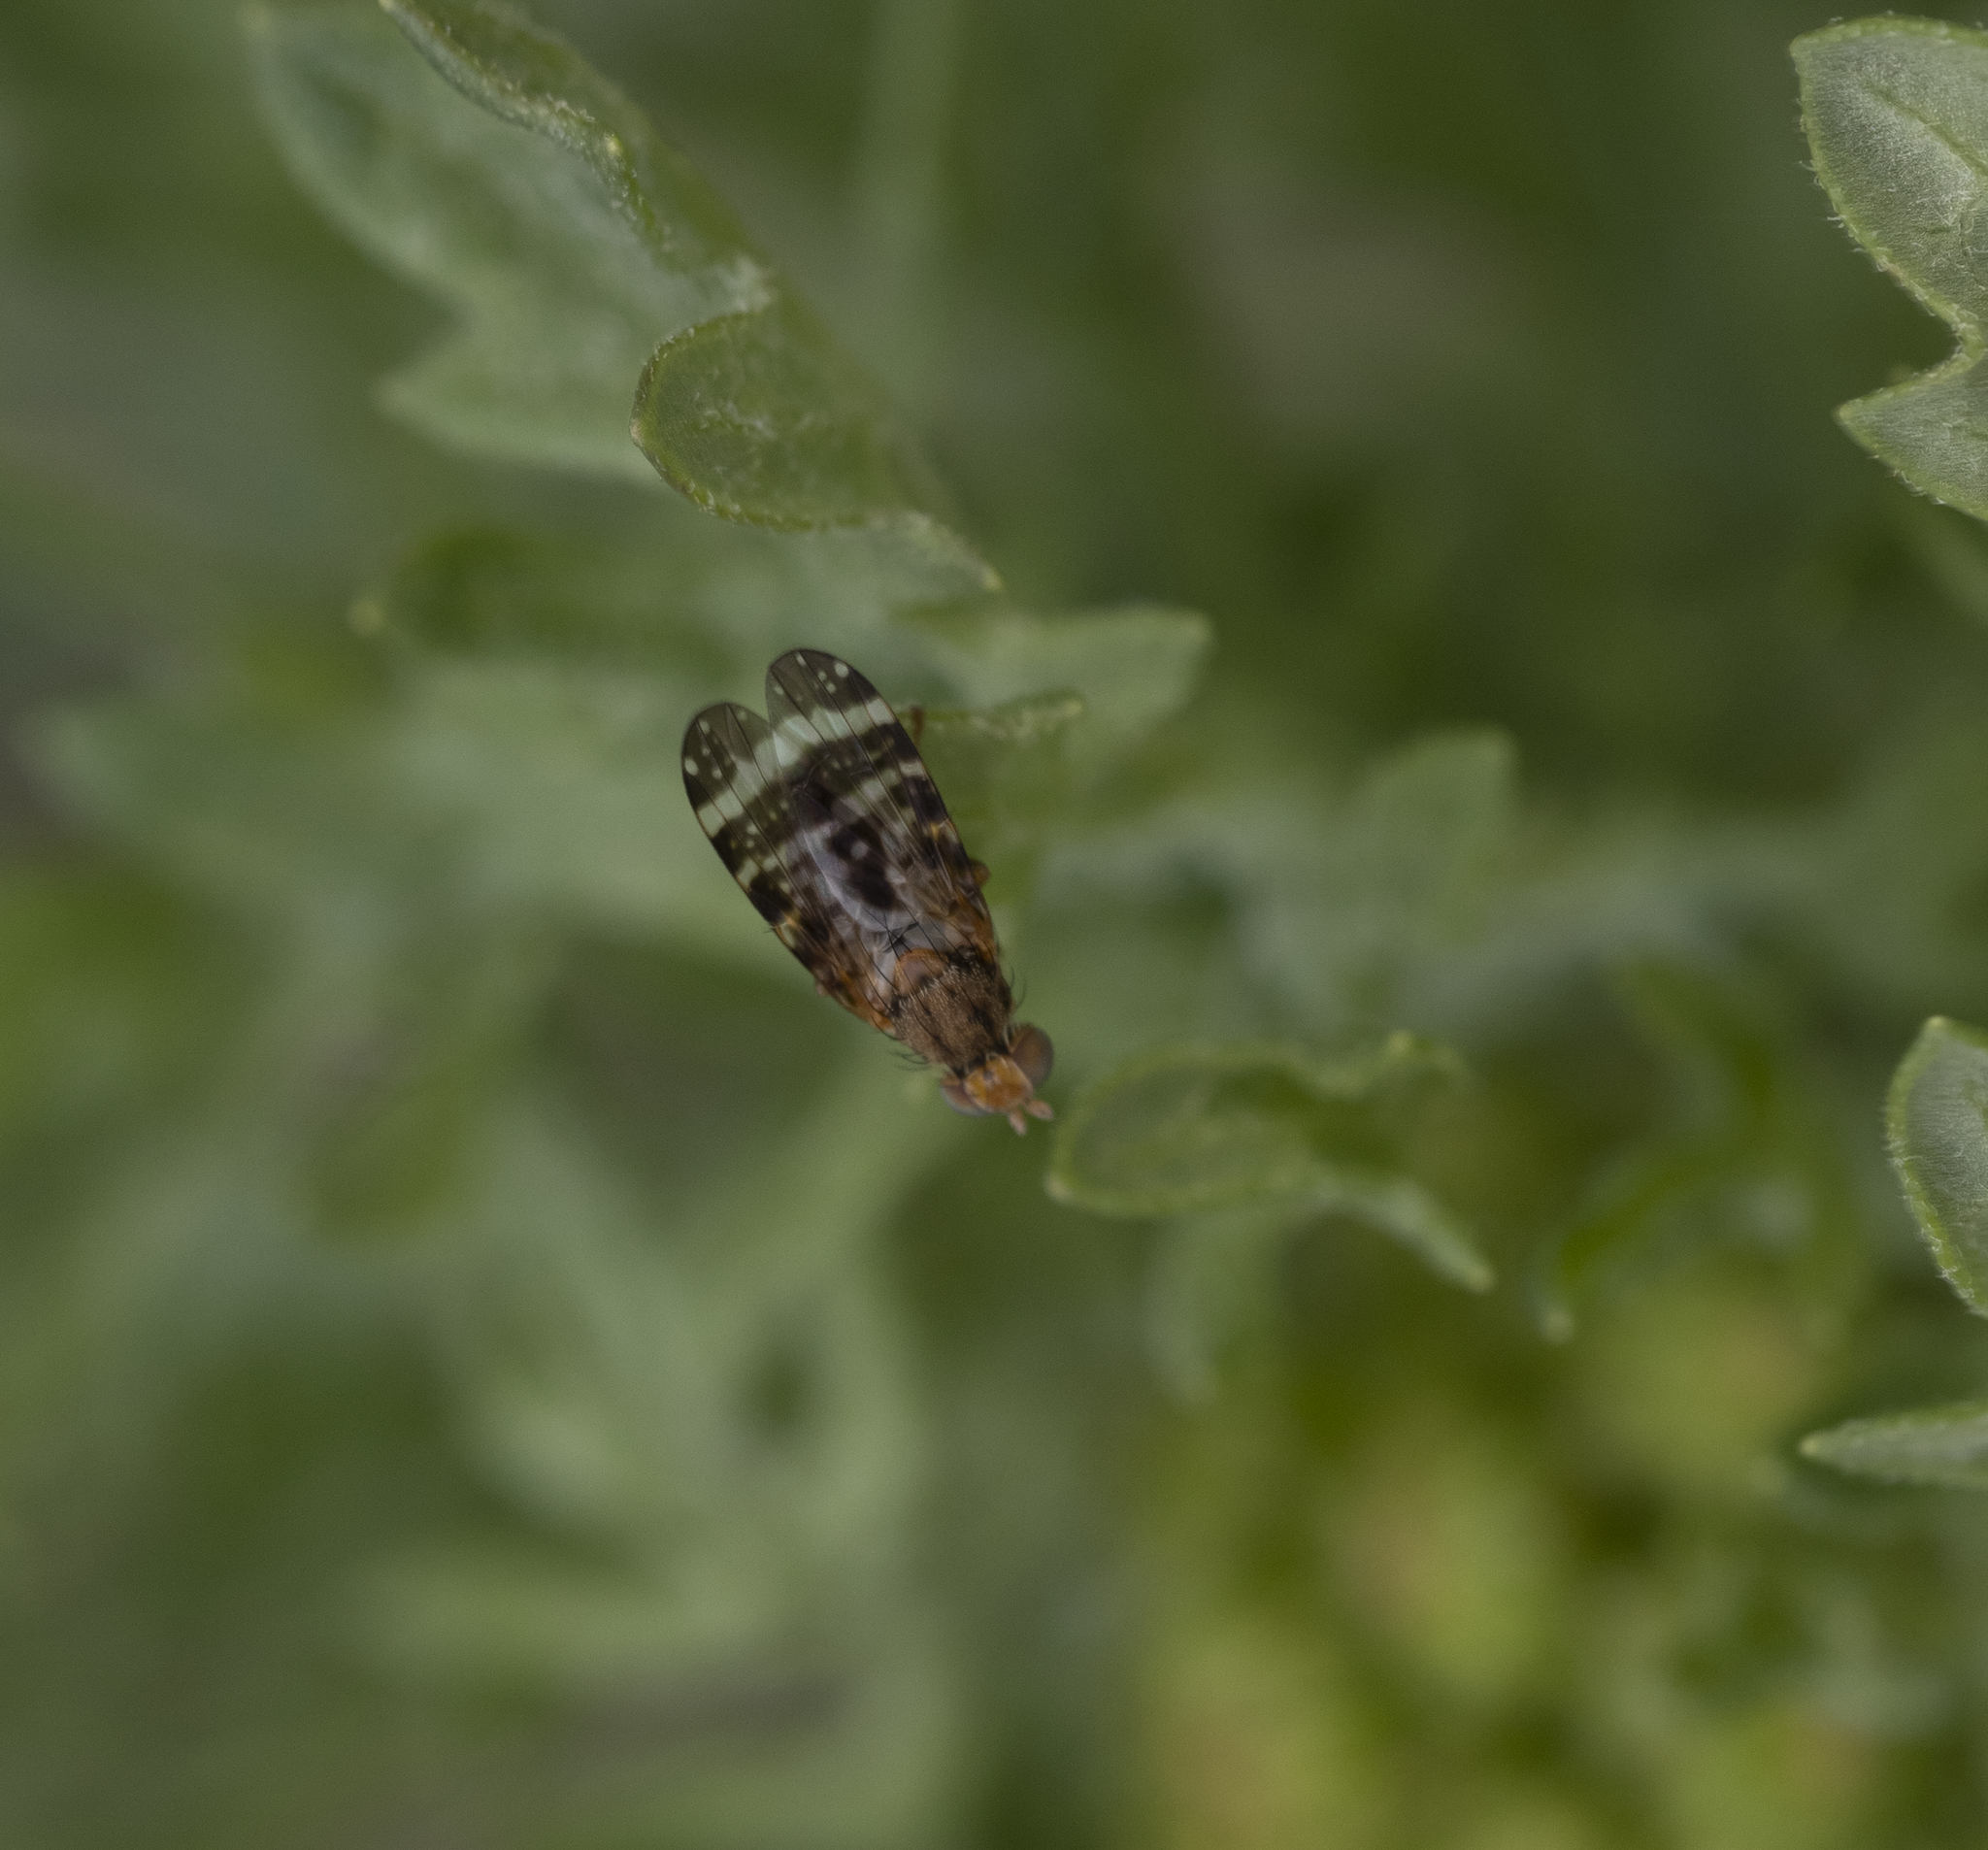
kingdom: Animalia
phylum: Arthropoda
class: Insecta
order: Diptera
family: Tephritidae
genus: Sphenella
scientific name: Sphenella
